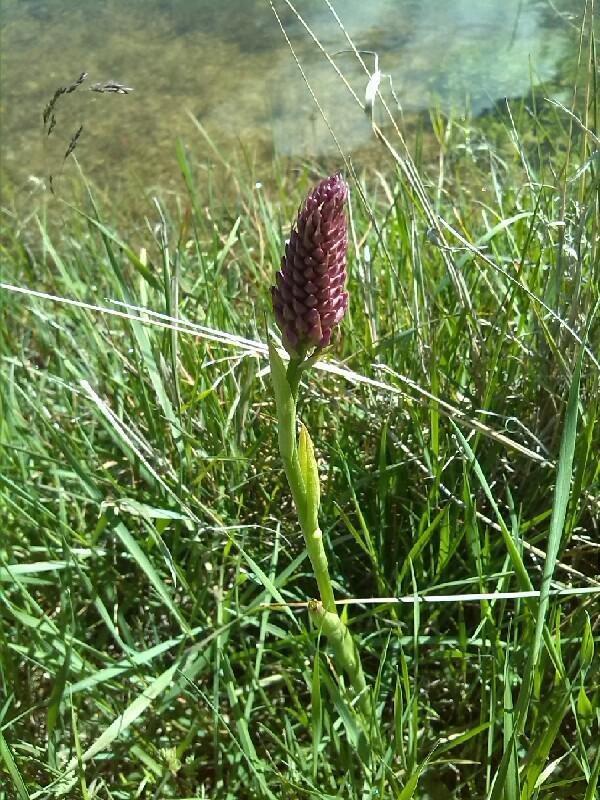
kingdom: Plantae
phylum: Tracheophyta
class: Liliopsida
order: Asparagales
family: Orchidaceae
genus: Gymnadenia
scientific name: Gymnadenia conopsea
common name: Fragrant orchid
